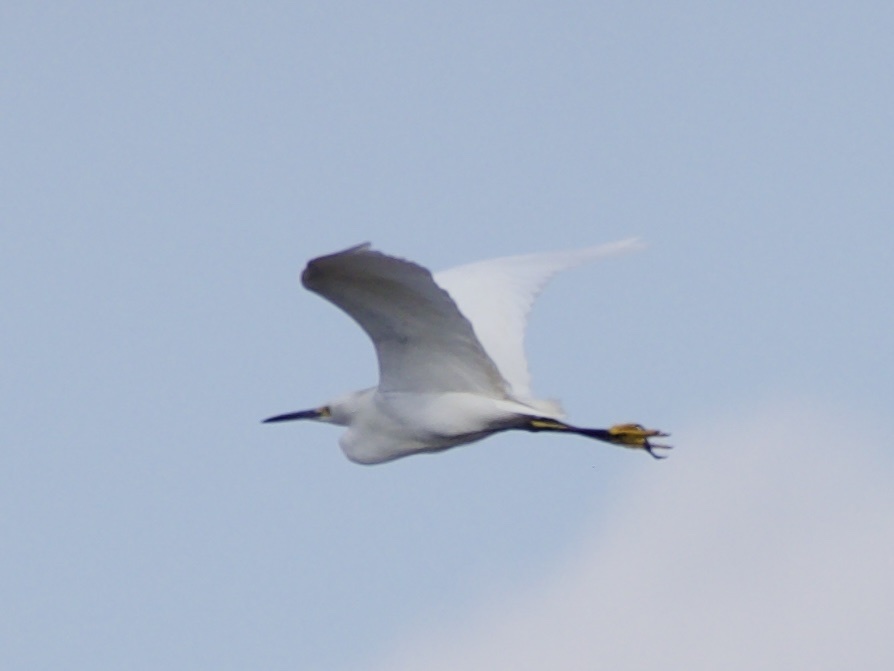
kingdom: Animalia
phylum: Chordata
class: Aves
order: Pelecaniformes
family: Ardeidae
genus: Egretta
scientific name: Egretta thula
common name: Snowy egret
